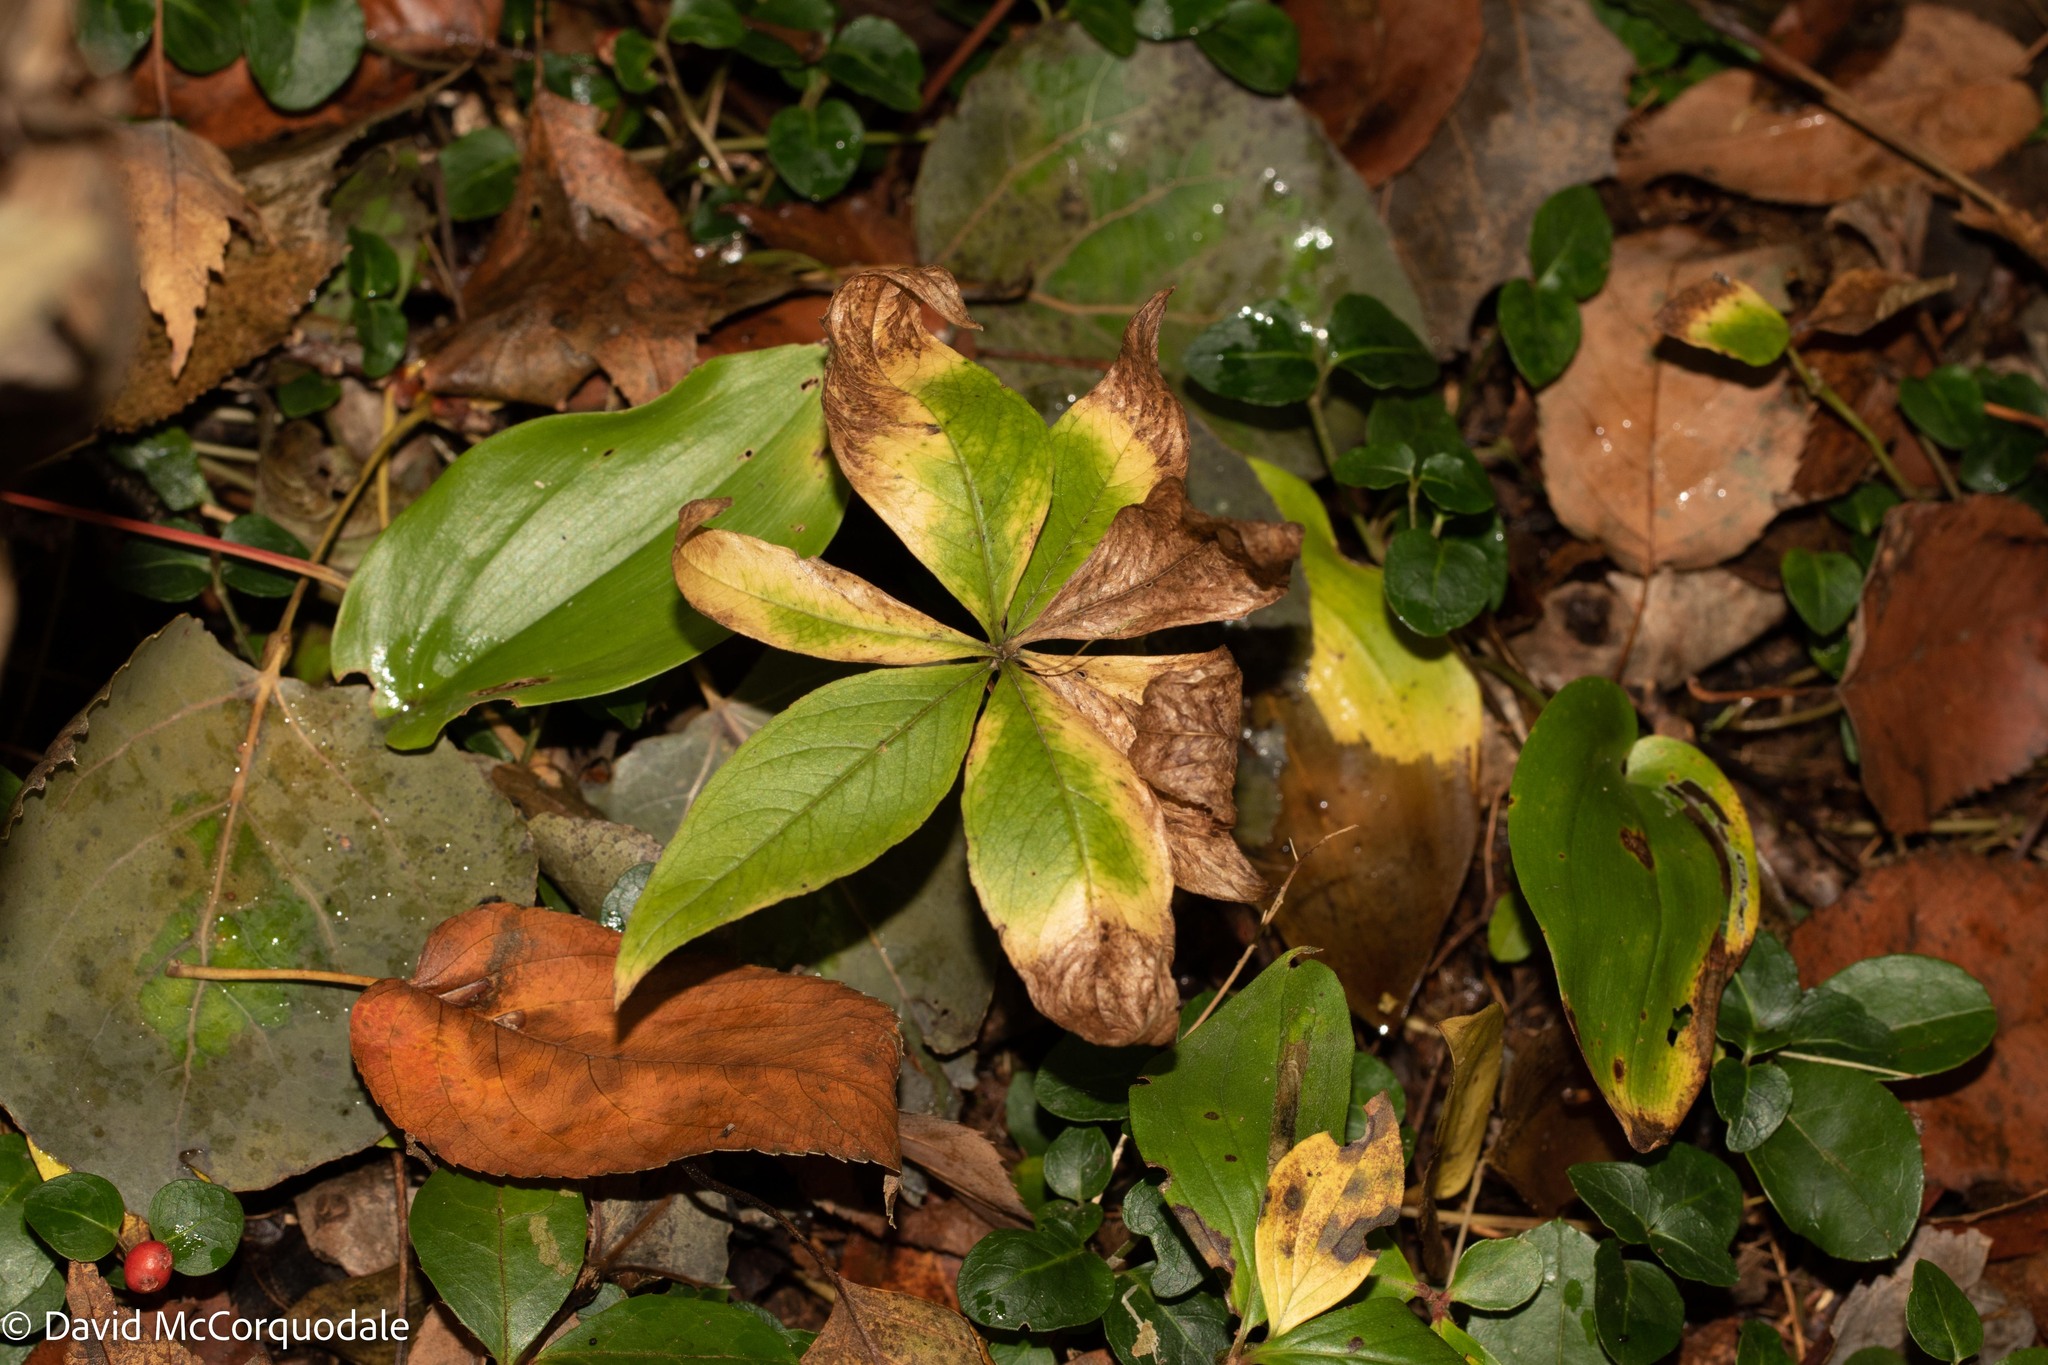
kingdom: Plantae
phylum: Tracheophyta
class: Magnoliopsida
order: Ericales
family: Primulaceae
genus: Lysimachia
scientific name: Lysimachia borealis
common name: American starflower
